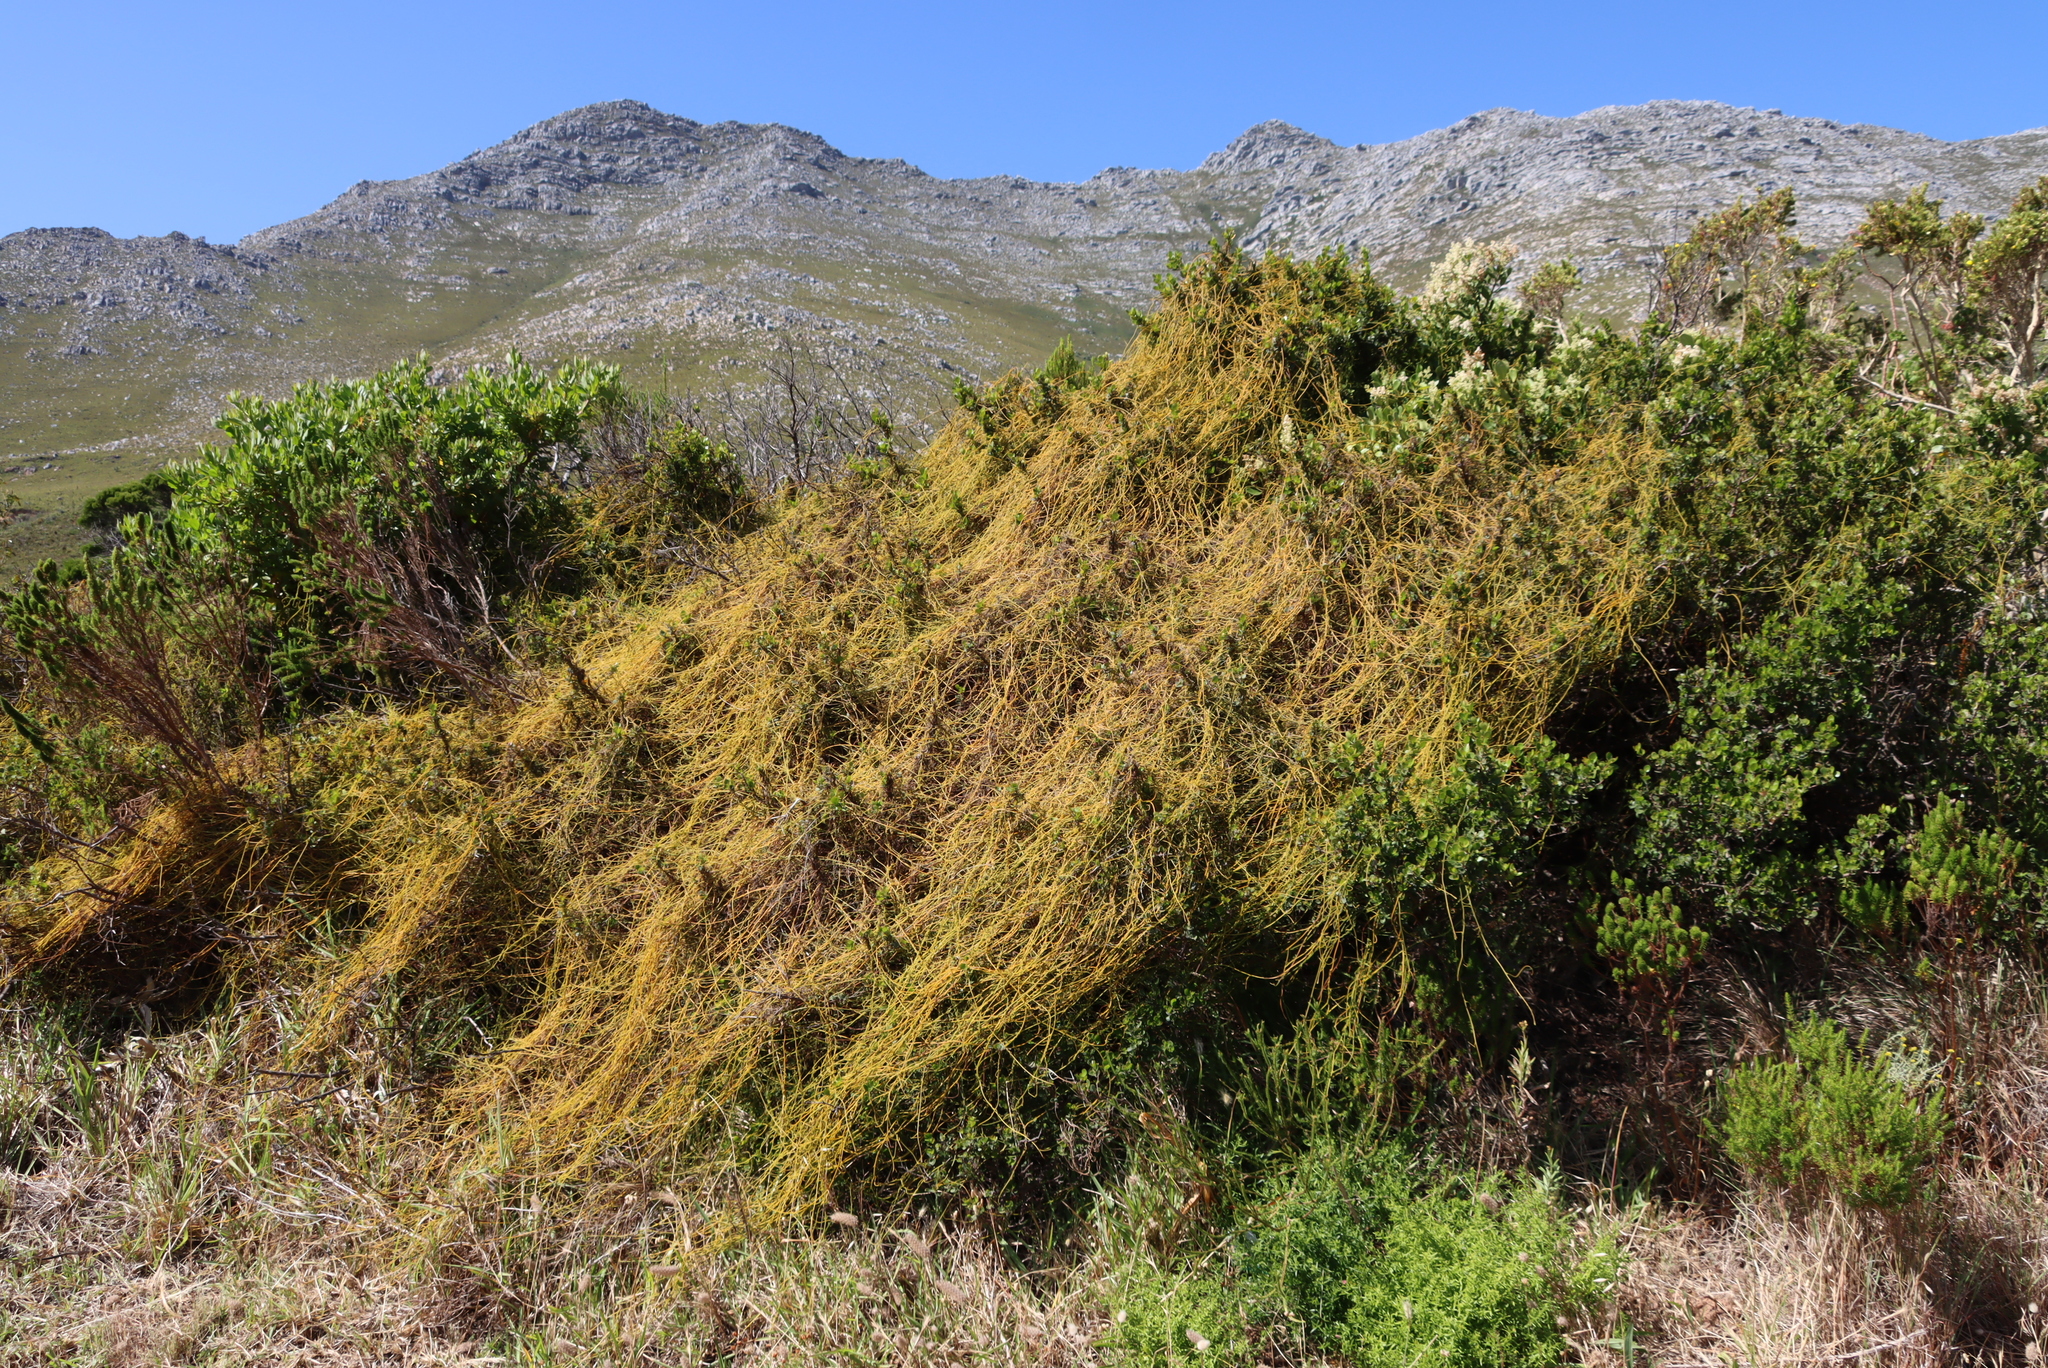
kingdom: Plantae
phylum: Tracheophyta
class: Magnoliopsida
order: Laurales
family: Lauraceae
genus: Cassytha
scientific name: Cassytha ciliolata
